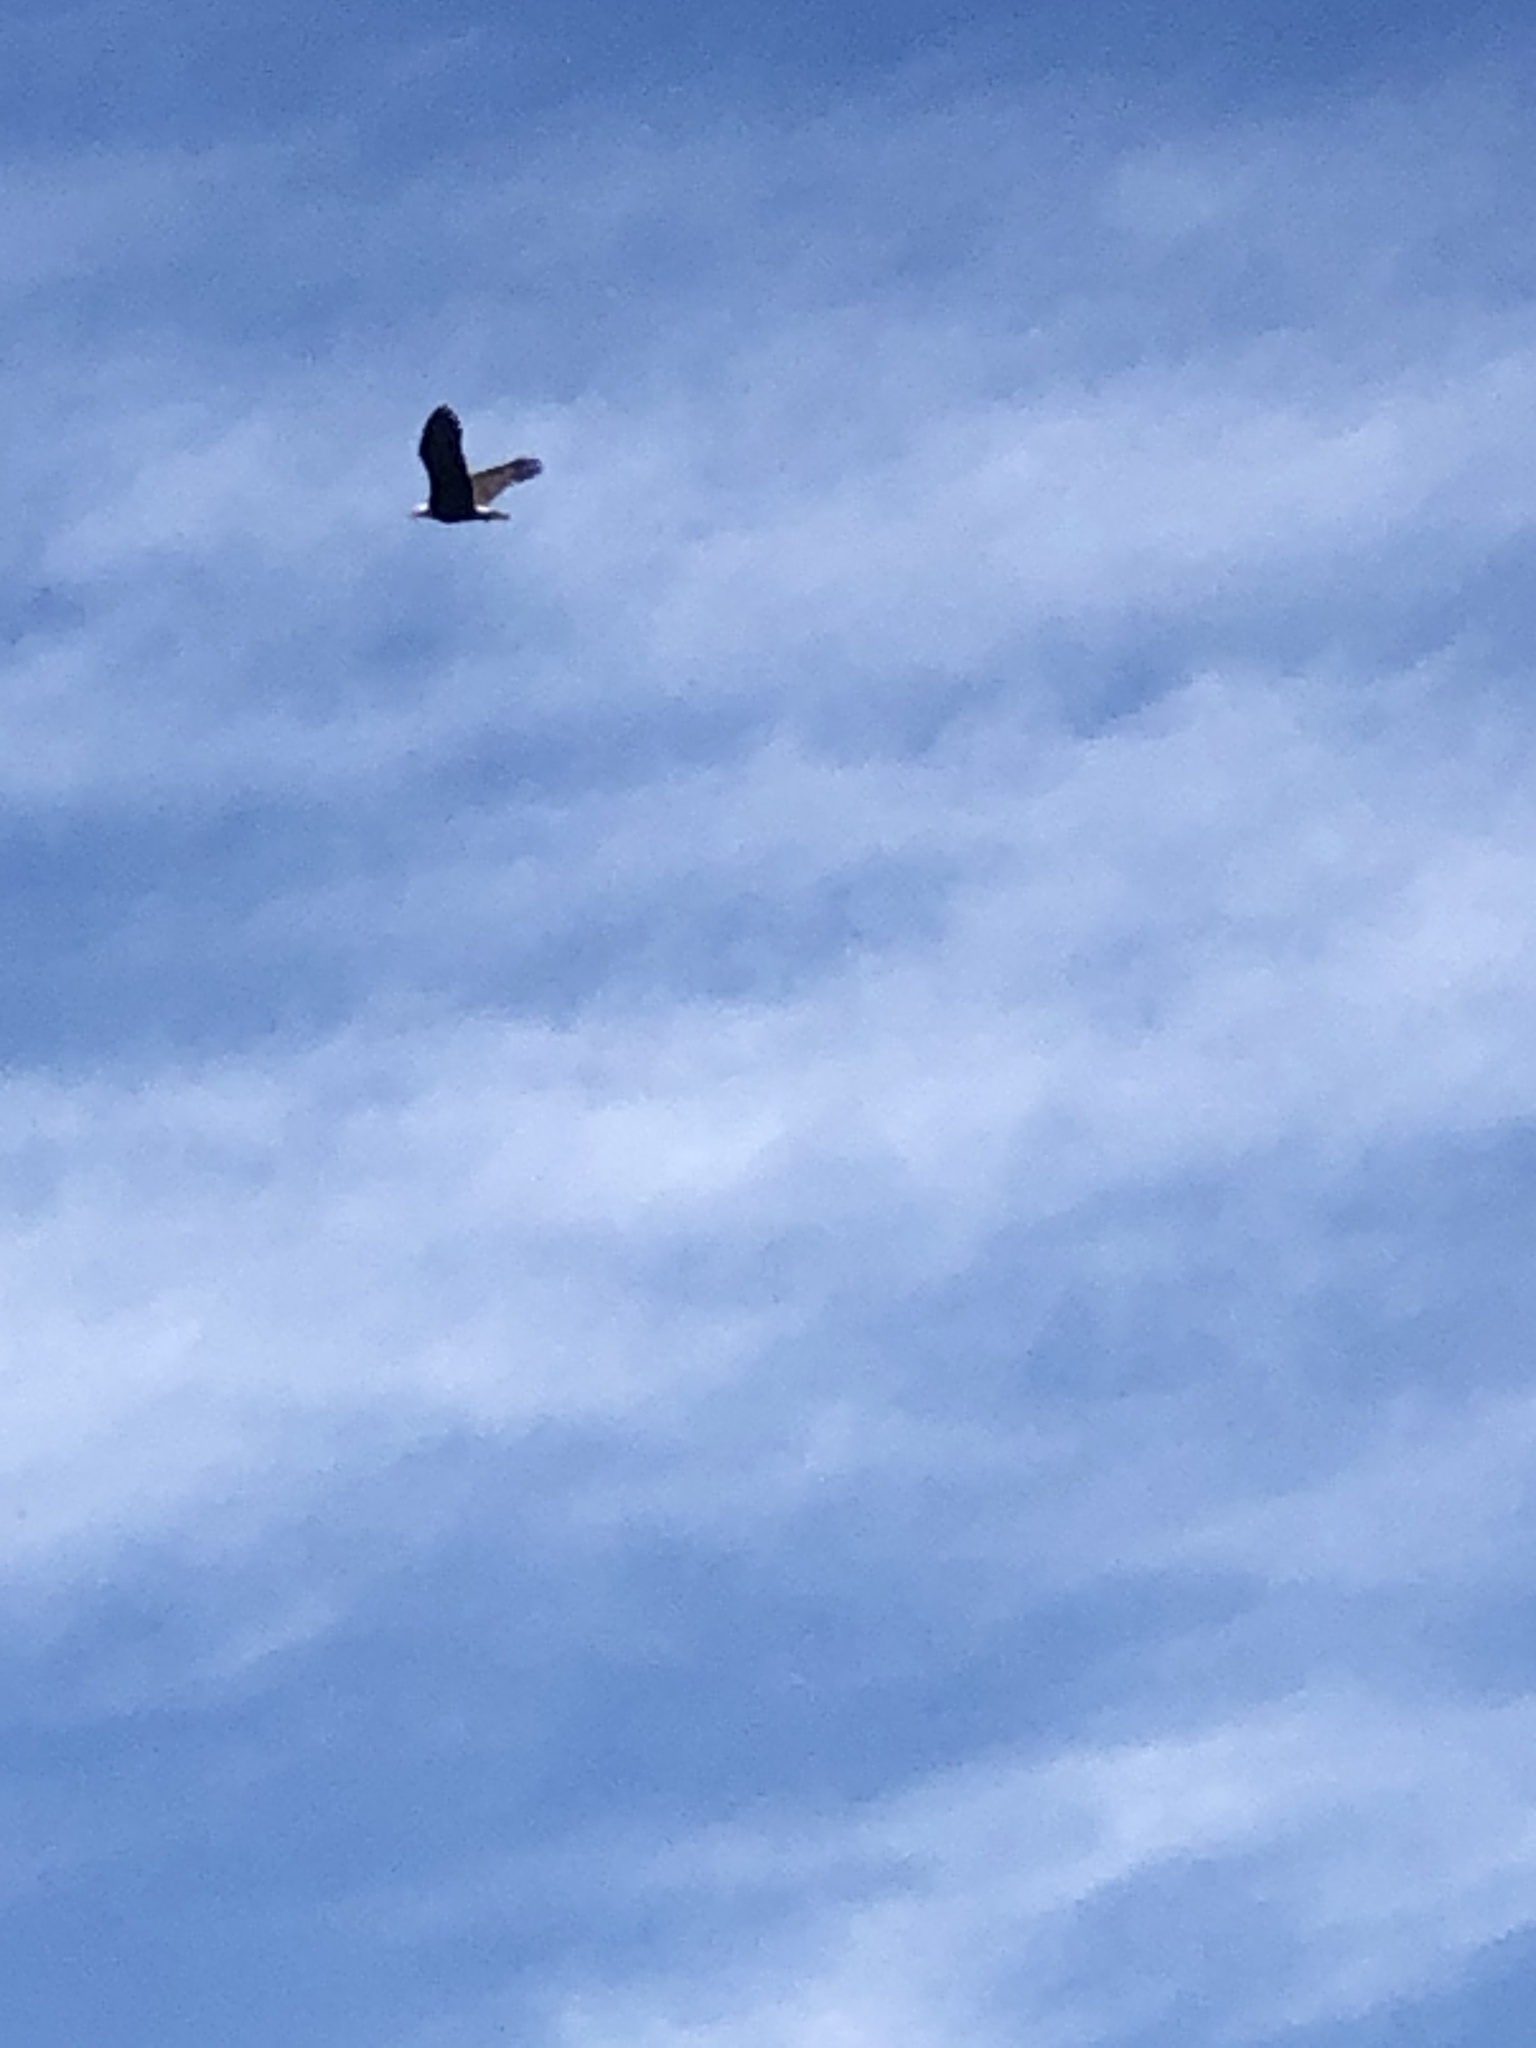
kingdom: Animalia
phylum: Chordata
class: Aves
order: Accipitriformes
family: Accipitridae
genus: Haliaeetus
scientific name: Haliaeetus leucocephalus
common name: Bald eagle
